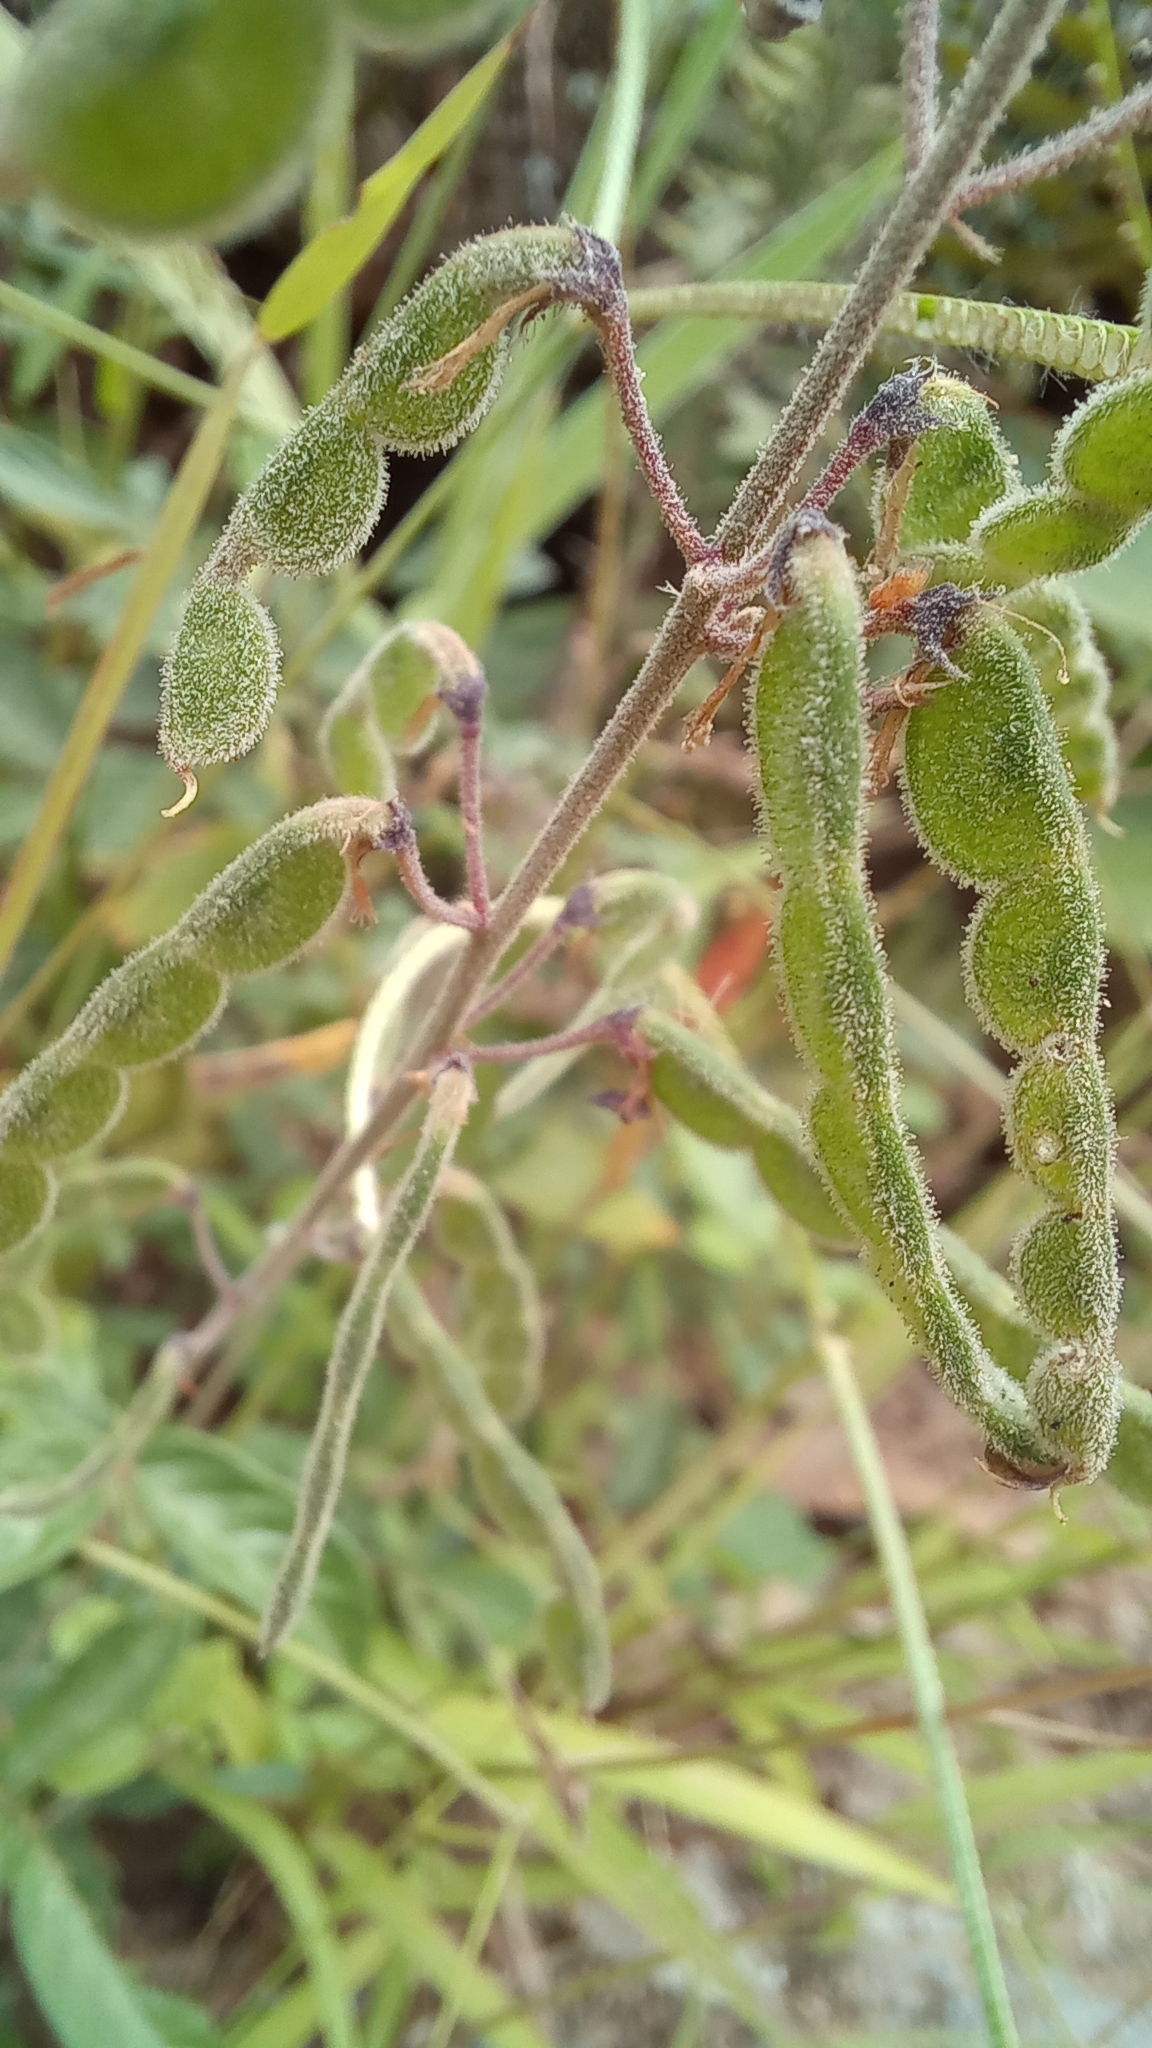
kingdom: Plantae
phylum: Tracheophyta
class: Magnoliopsida
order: Fabales
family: Fabaceae
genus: Desmodium
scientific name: Desmodium incanum
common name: Tickclover
